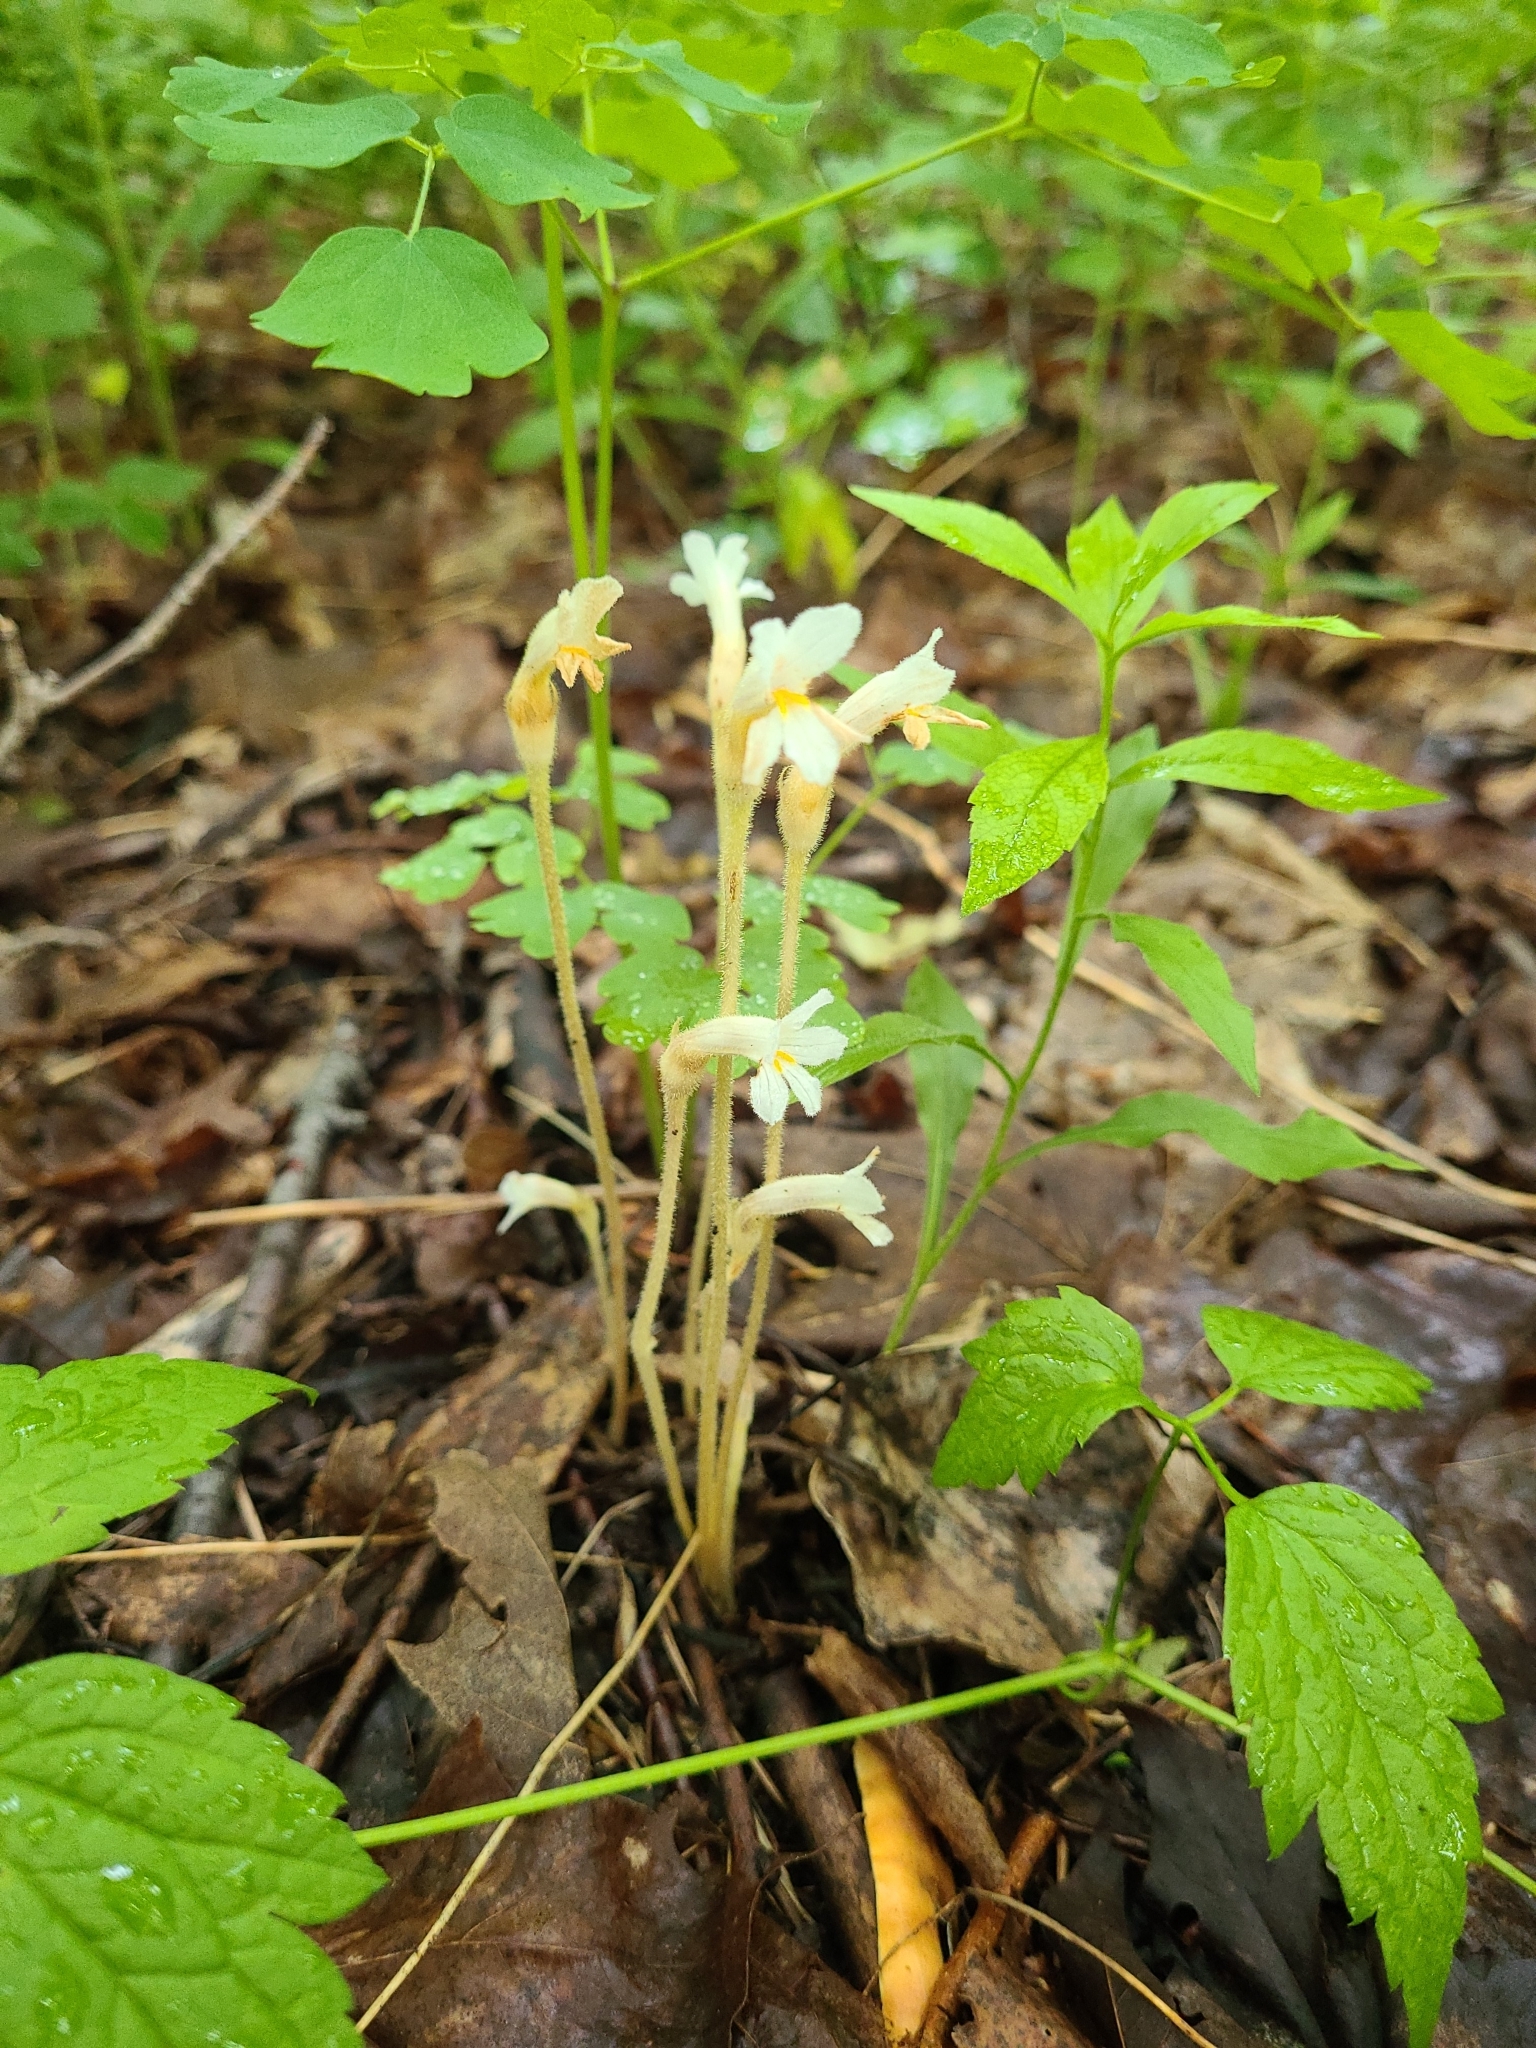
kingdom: Plantae
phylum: Tracheophyta
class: Magnoliopsida
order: Lamiales
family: Orobanchaceae
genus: Aphyllon
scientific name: Aphyllon uniflorum
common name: One-flowered broomrape
